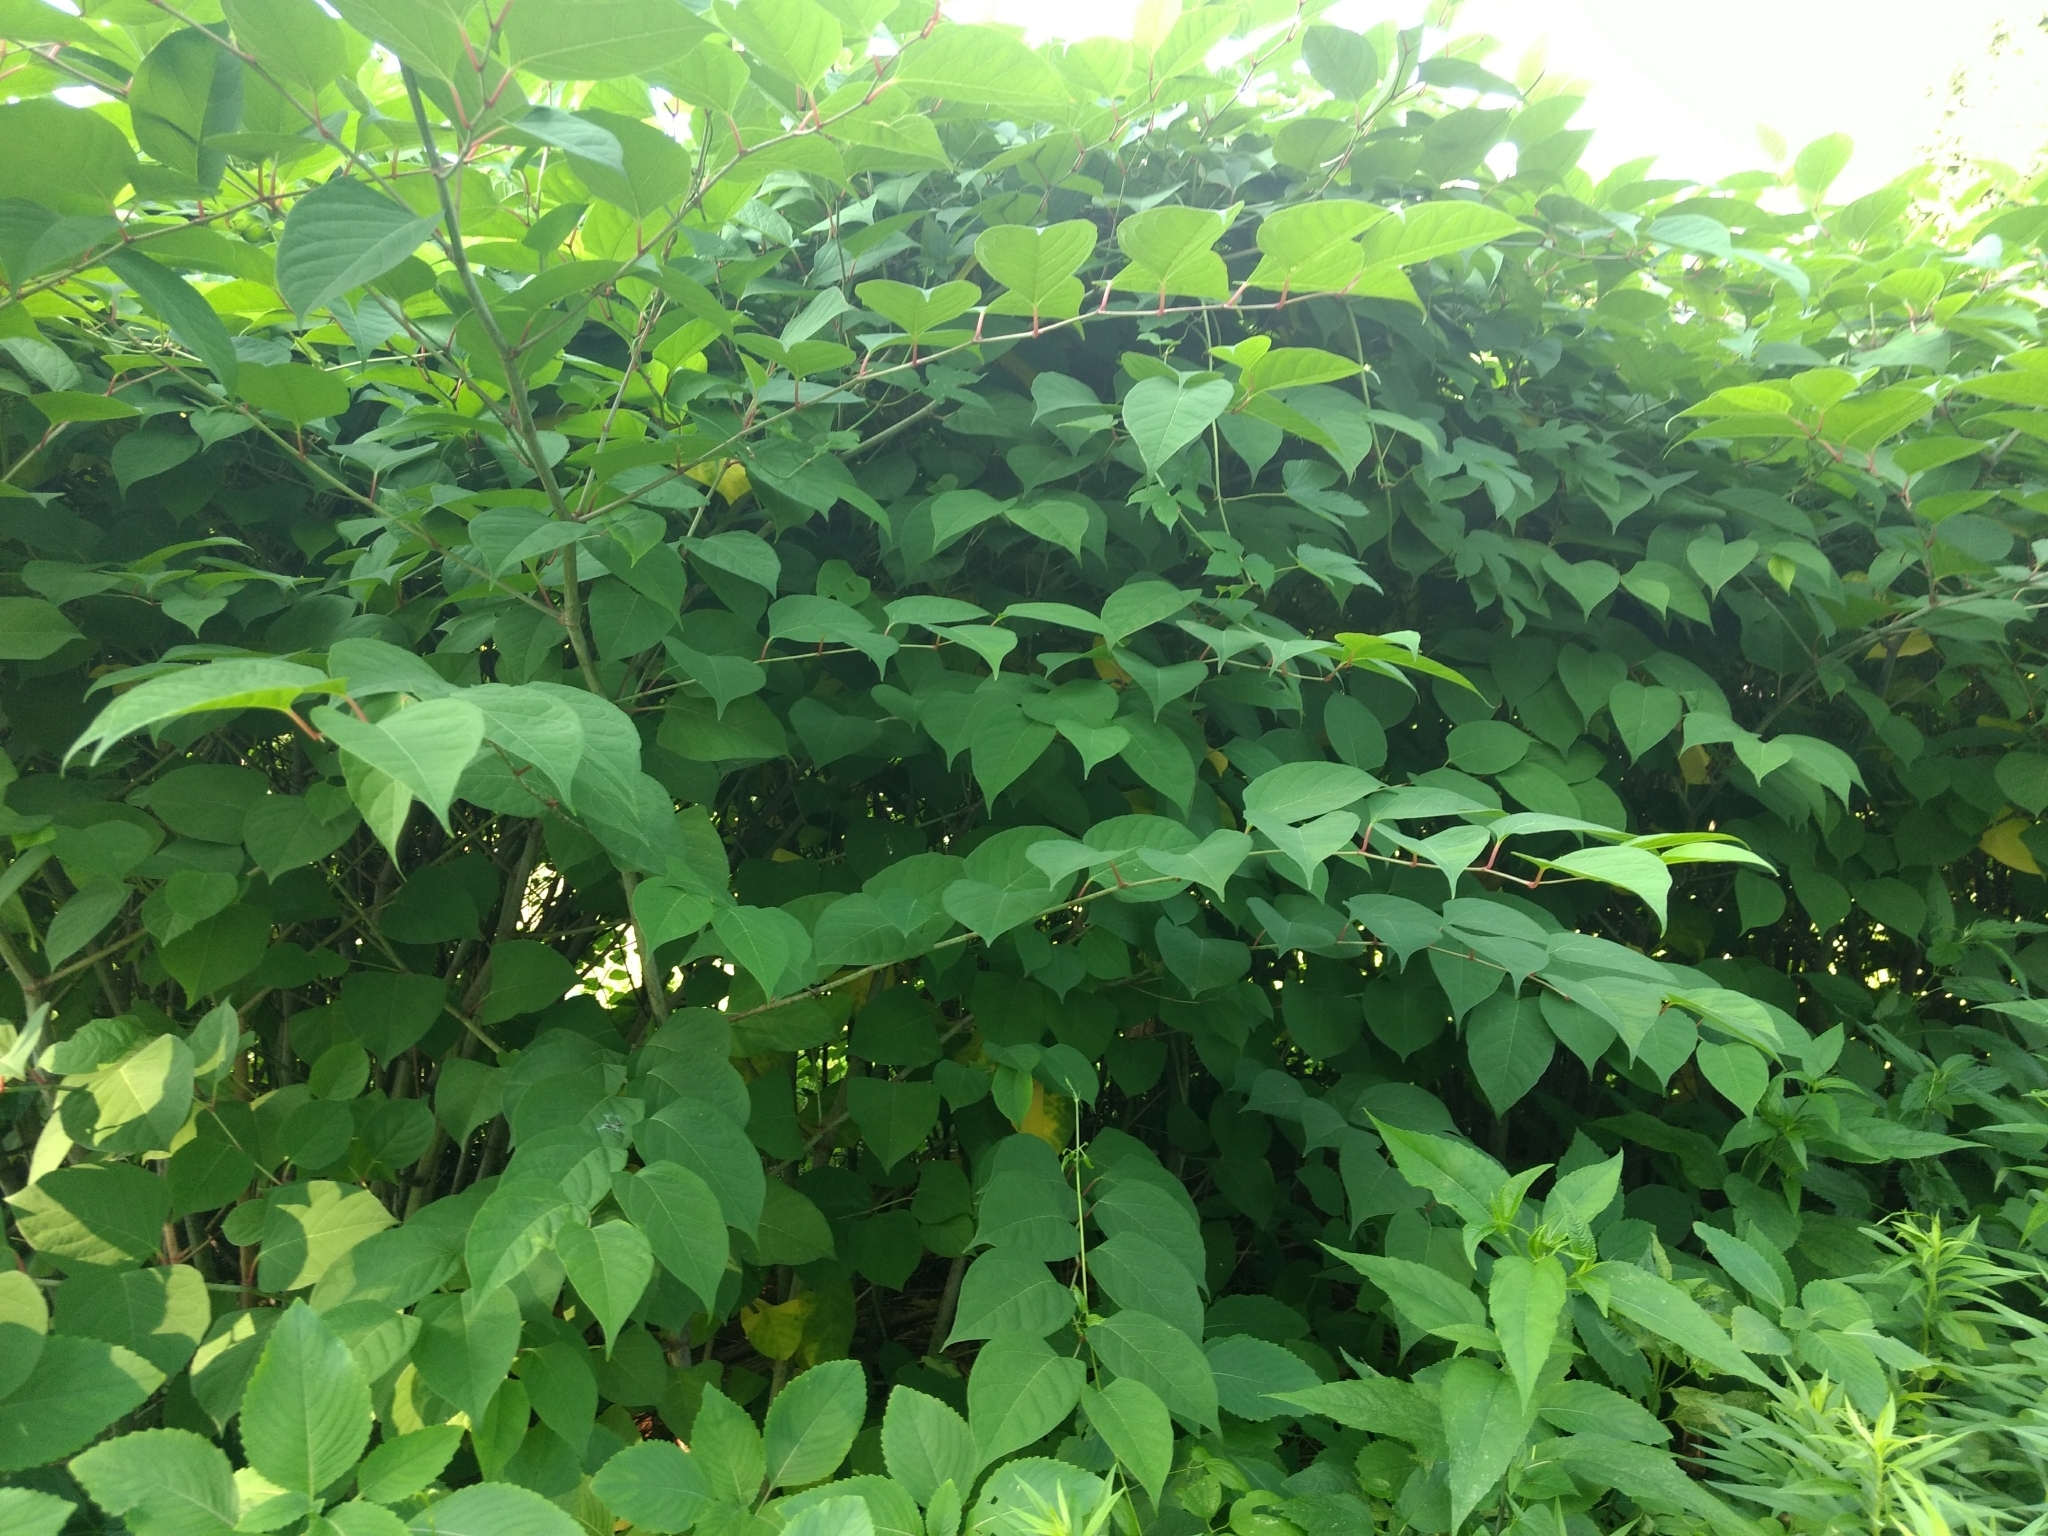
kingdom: Plantae
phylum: Tracheophyta
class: Magnoliopsida
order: Caryophyllales
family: Polygonaceae
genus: Reynoutria
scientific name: Reynoutria japonica
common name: Japanese knotweed
